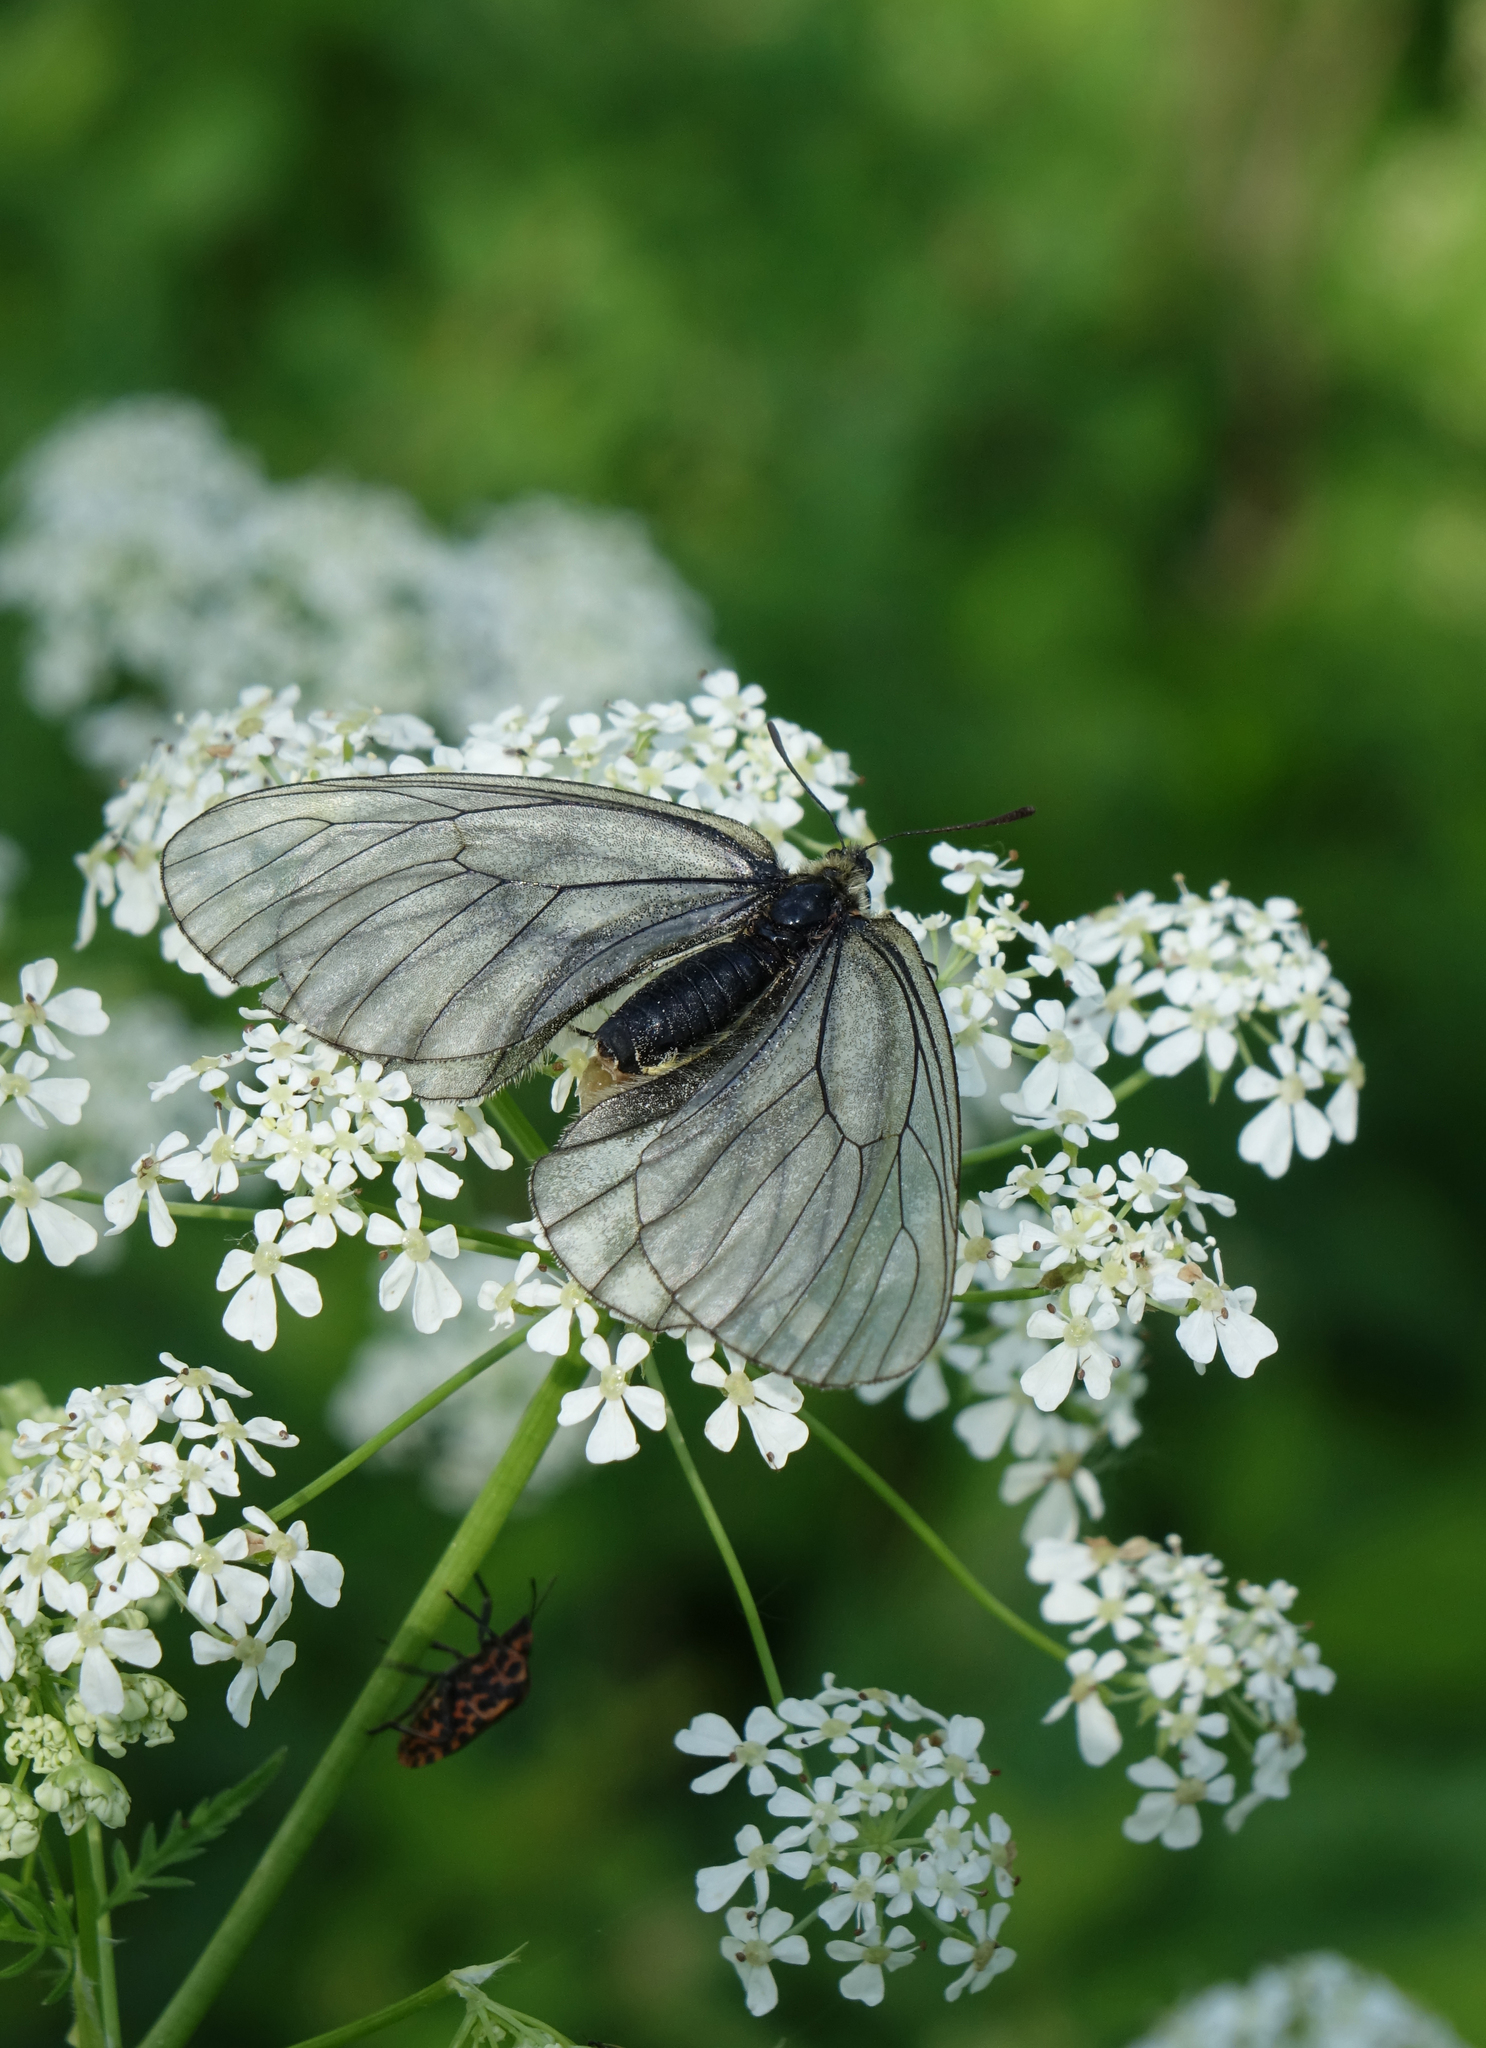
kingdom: Animalia
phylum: Arthropoda
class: Insecta
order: Lepidoptera
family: Papilionidae
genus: Parnassius
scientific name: Parnassius stubbendorfii
